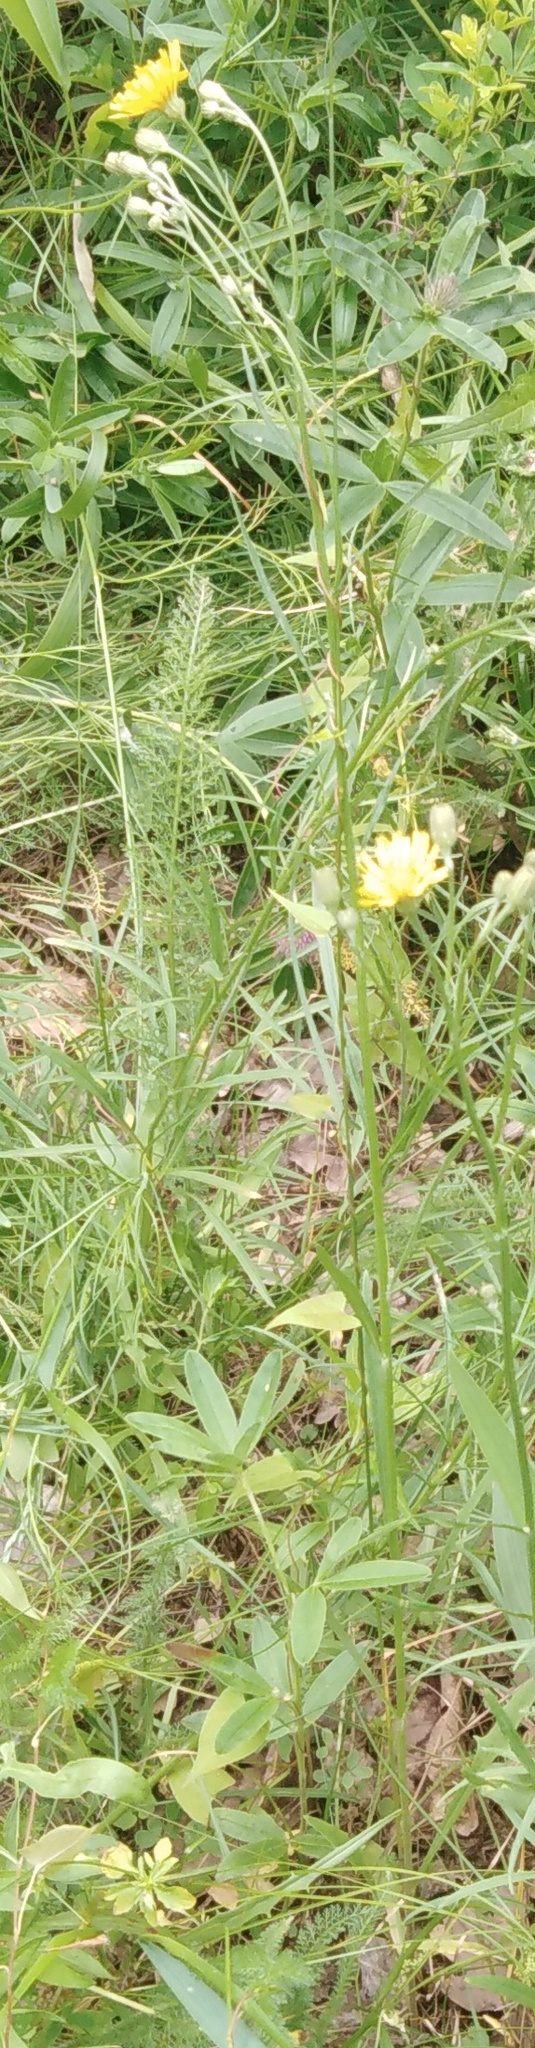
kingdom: Plantae
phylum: Tracheophyta
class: Magnoliopsida
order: Asterales
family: Asteraceae
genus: Crepis
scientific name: Crepis tectorum
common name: Narrow-leaved hawk's-beard
